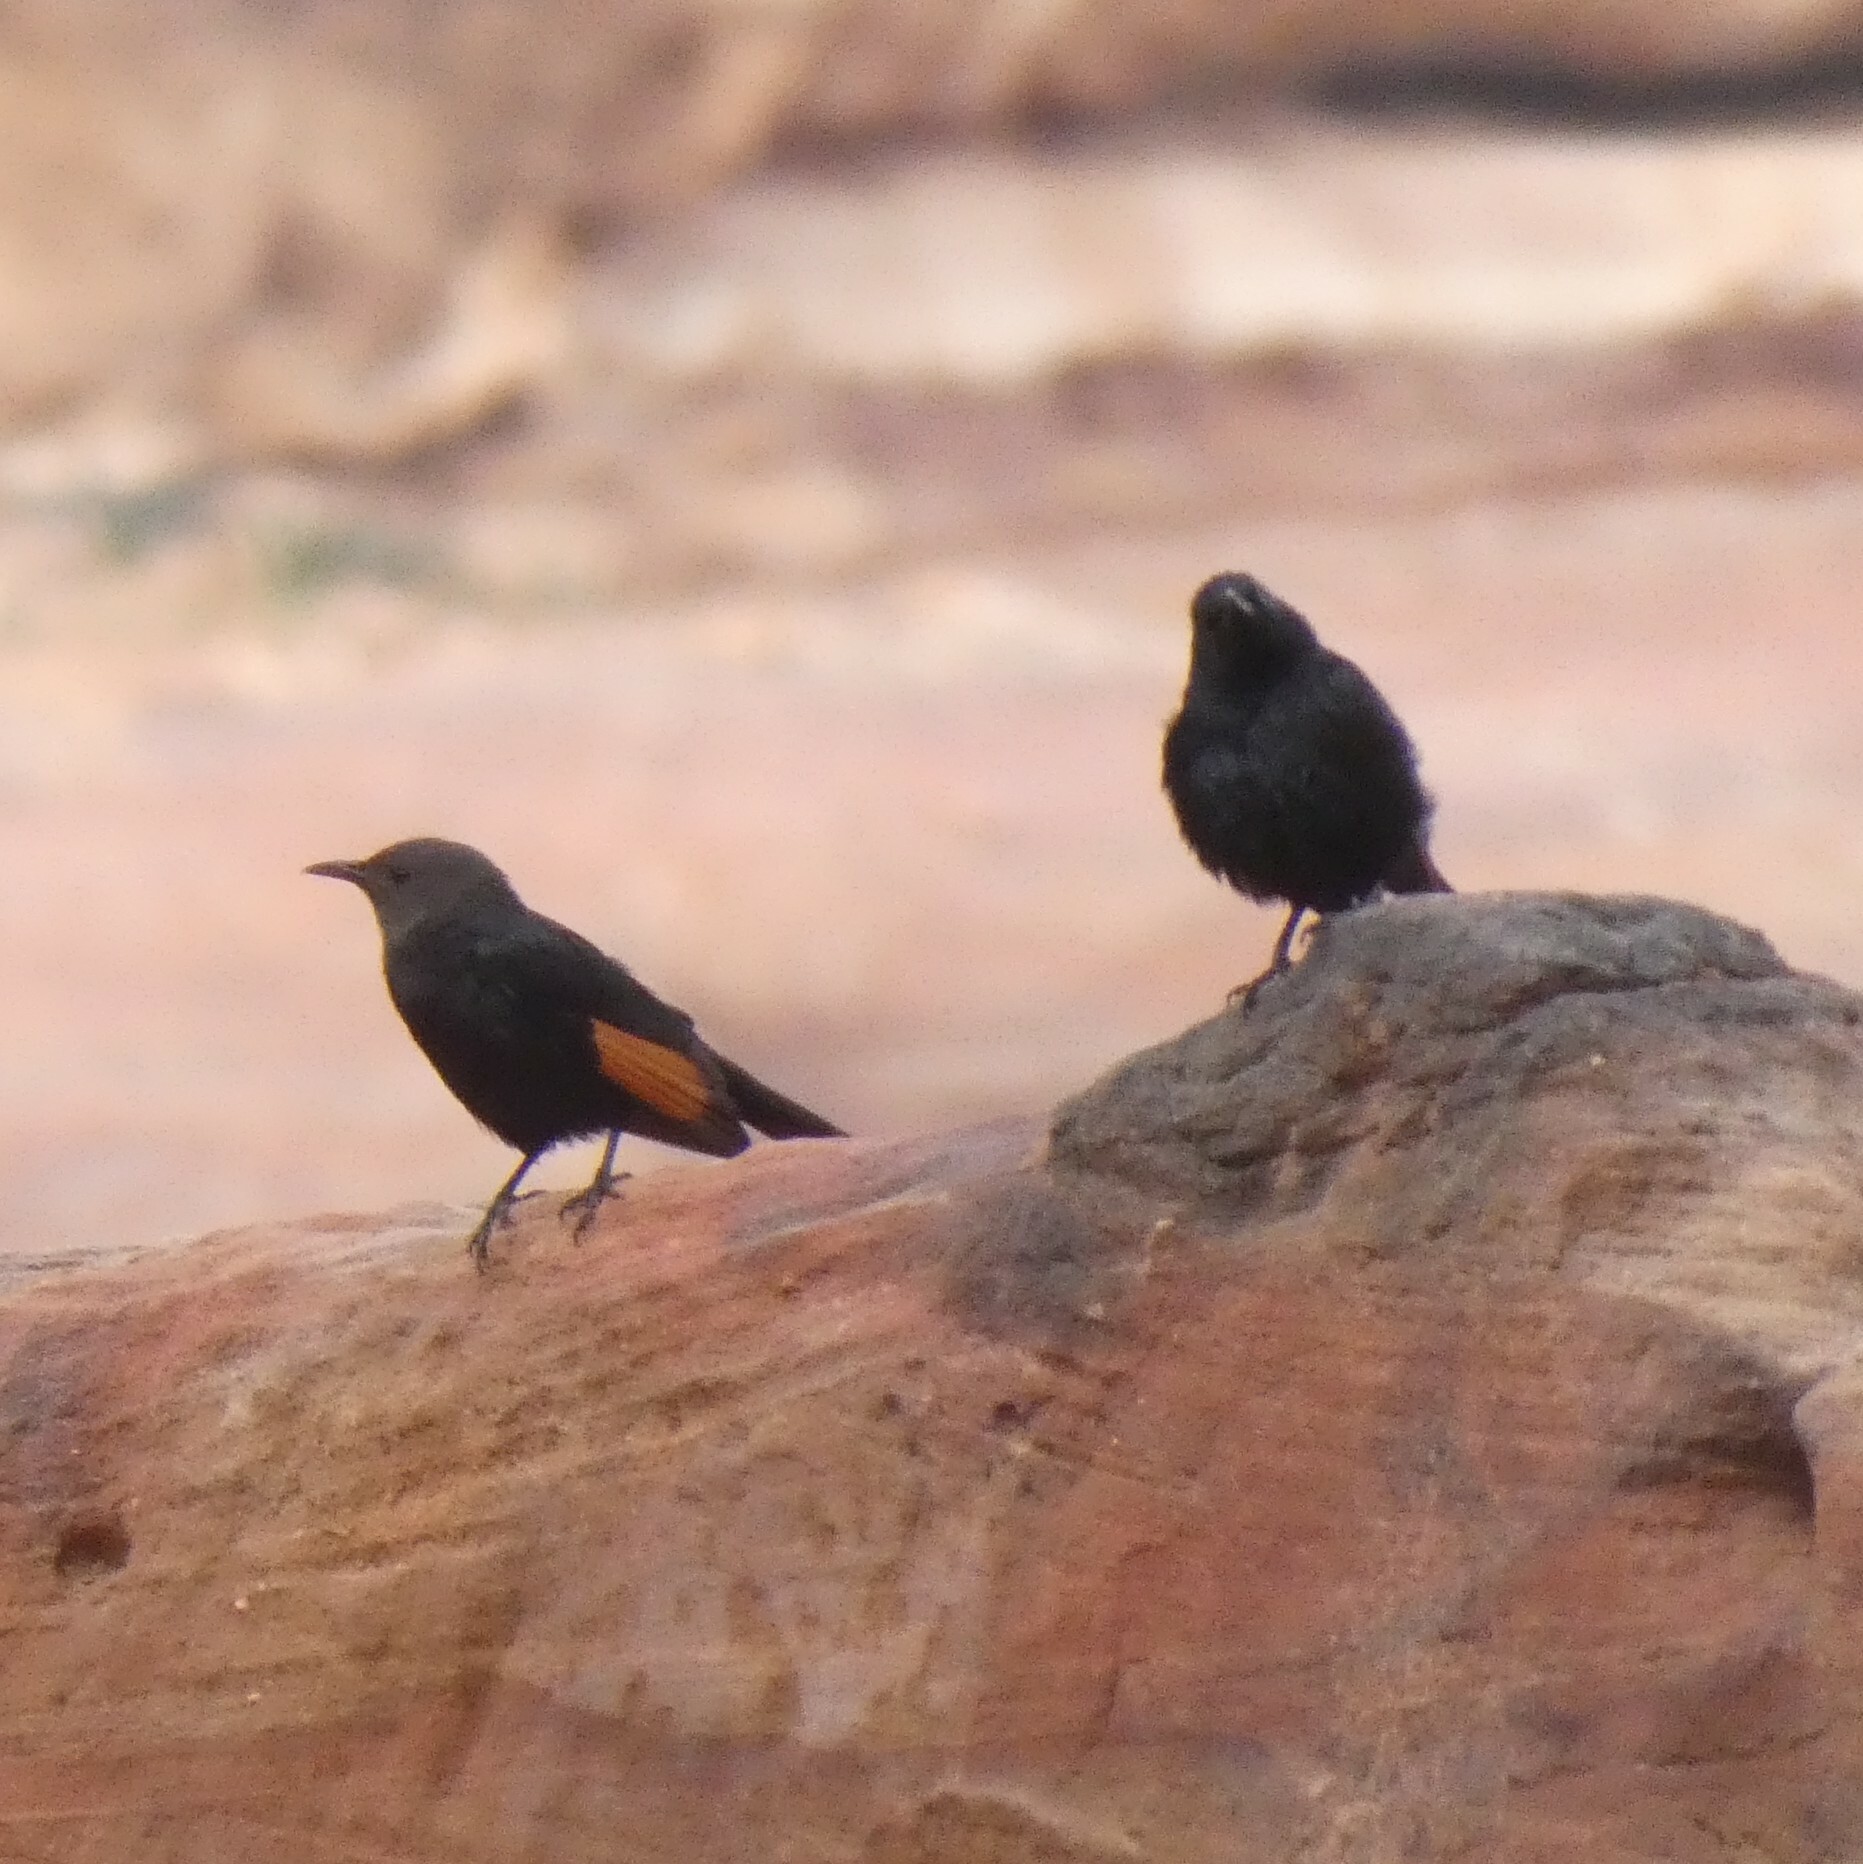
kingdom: Animalia
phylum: Chordata
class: Aves
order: Passeriformes
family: Sturnidae
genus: Onychognathus
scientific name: Onychognathus tristramii
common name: Tristram's starling
